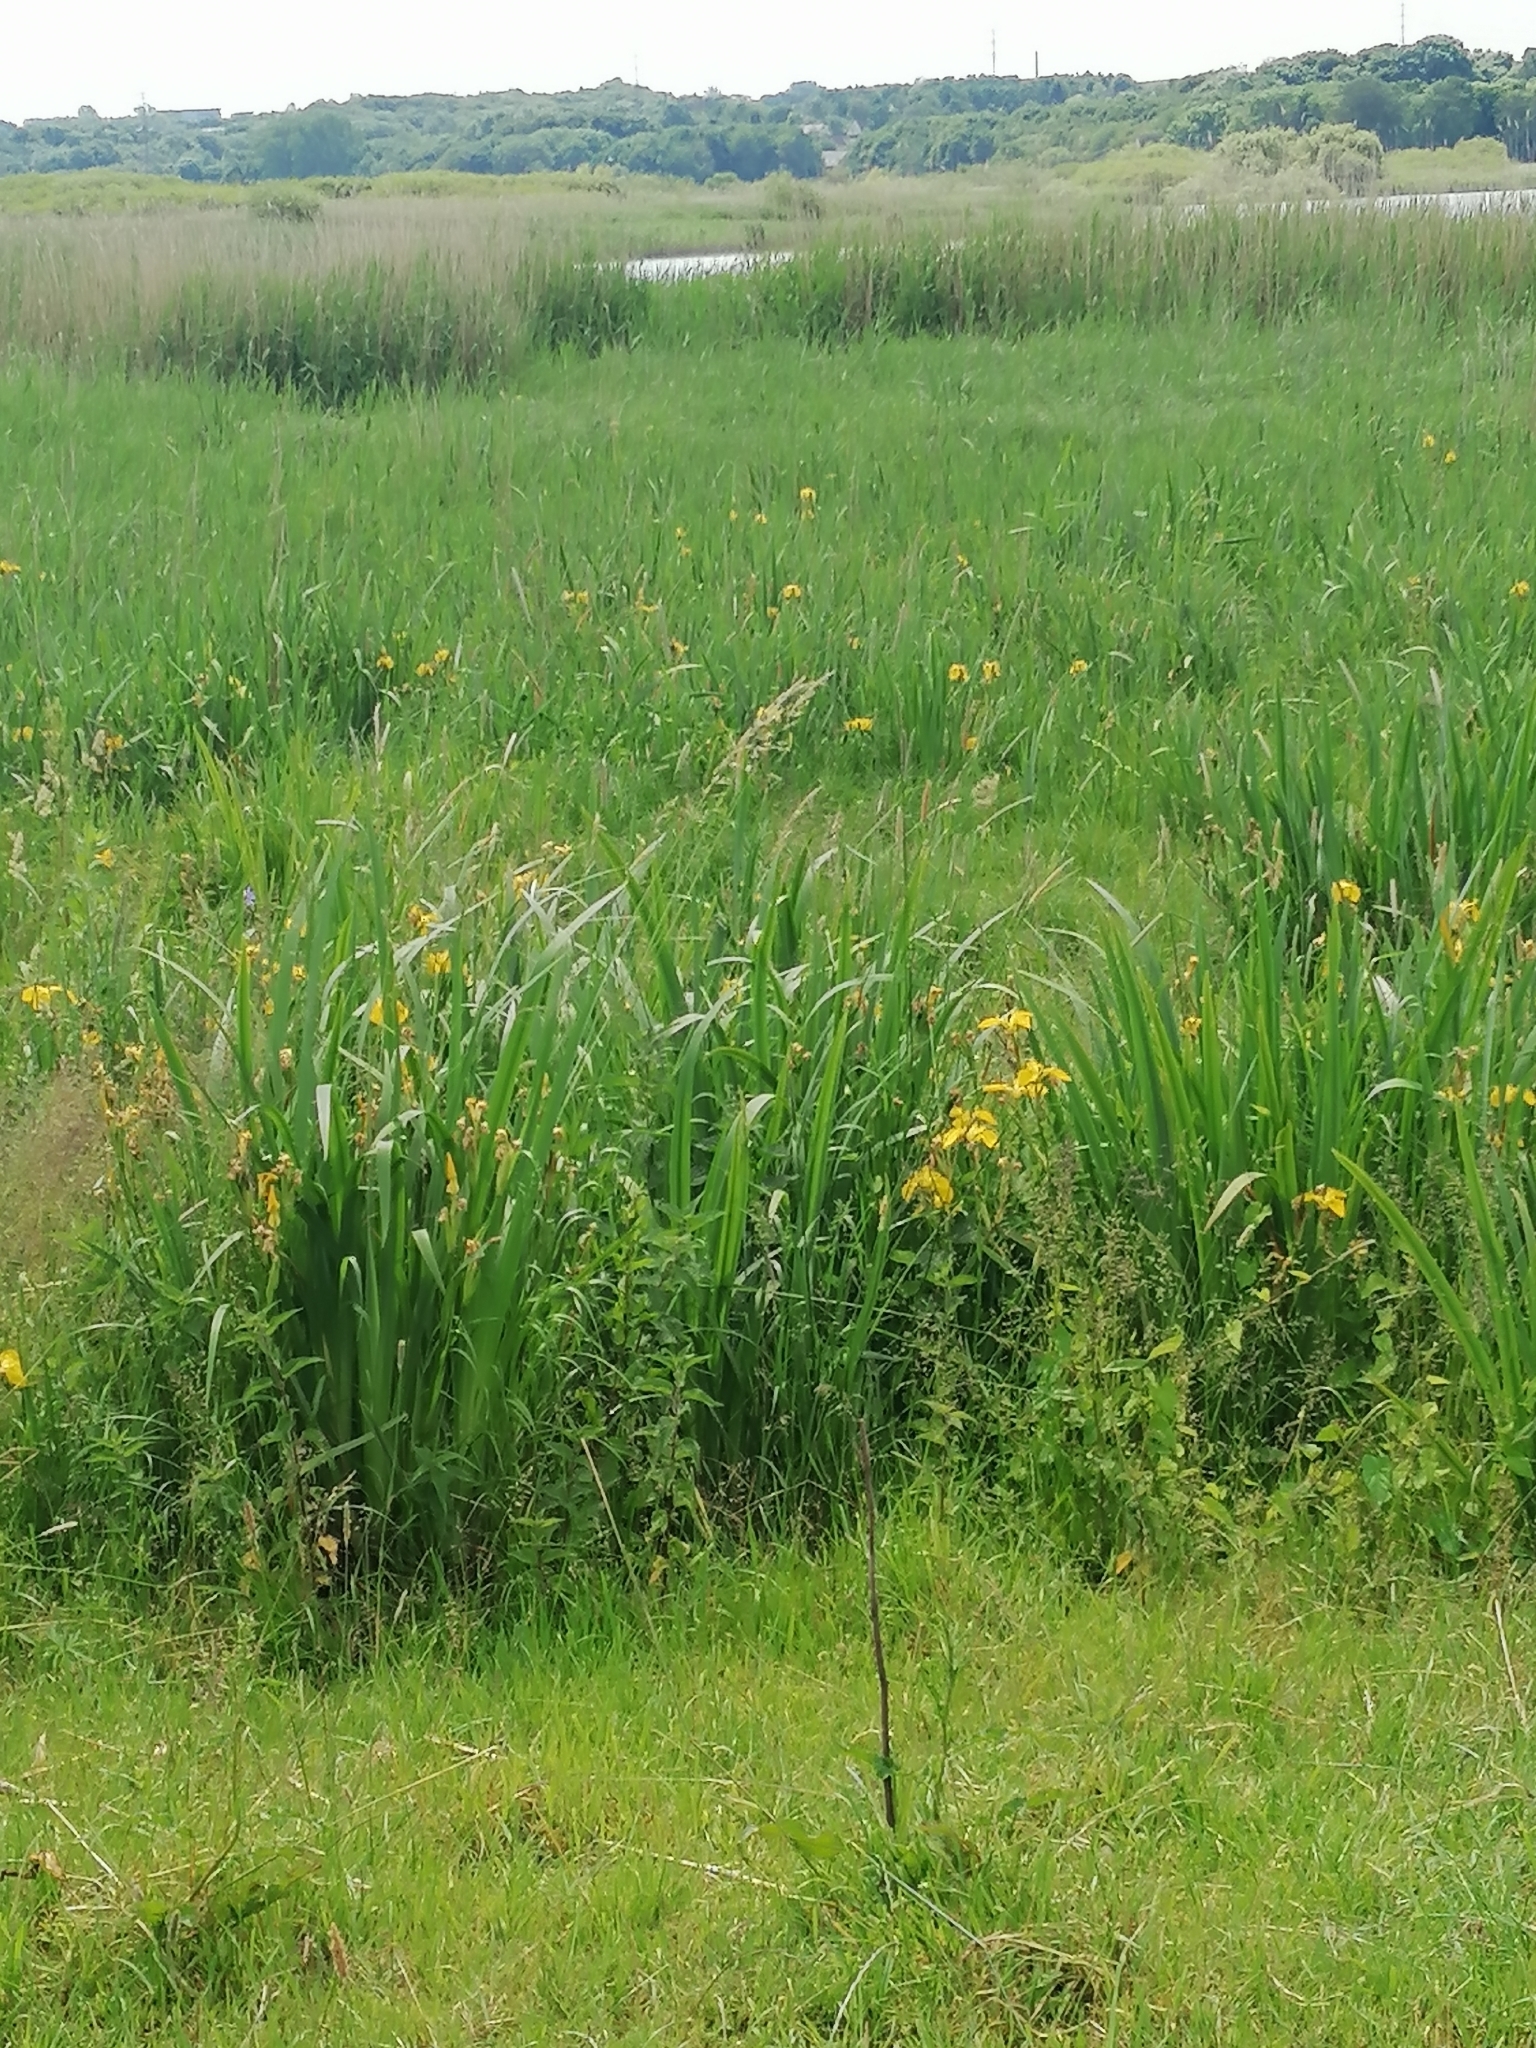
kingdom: Plantae
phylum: Tracheophyta
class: Liliopsida
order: Asparagales
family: Iridaceae
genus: Iris
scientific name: Iris pseudacorus
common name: Yellow flag
